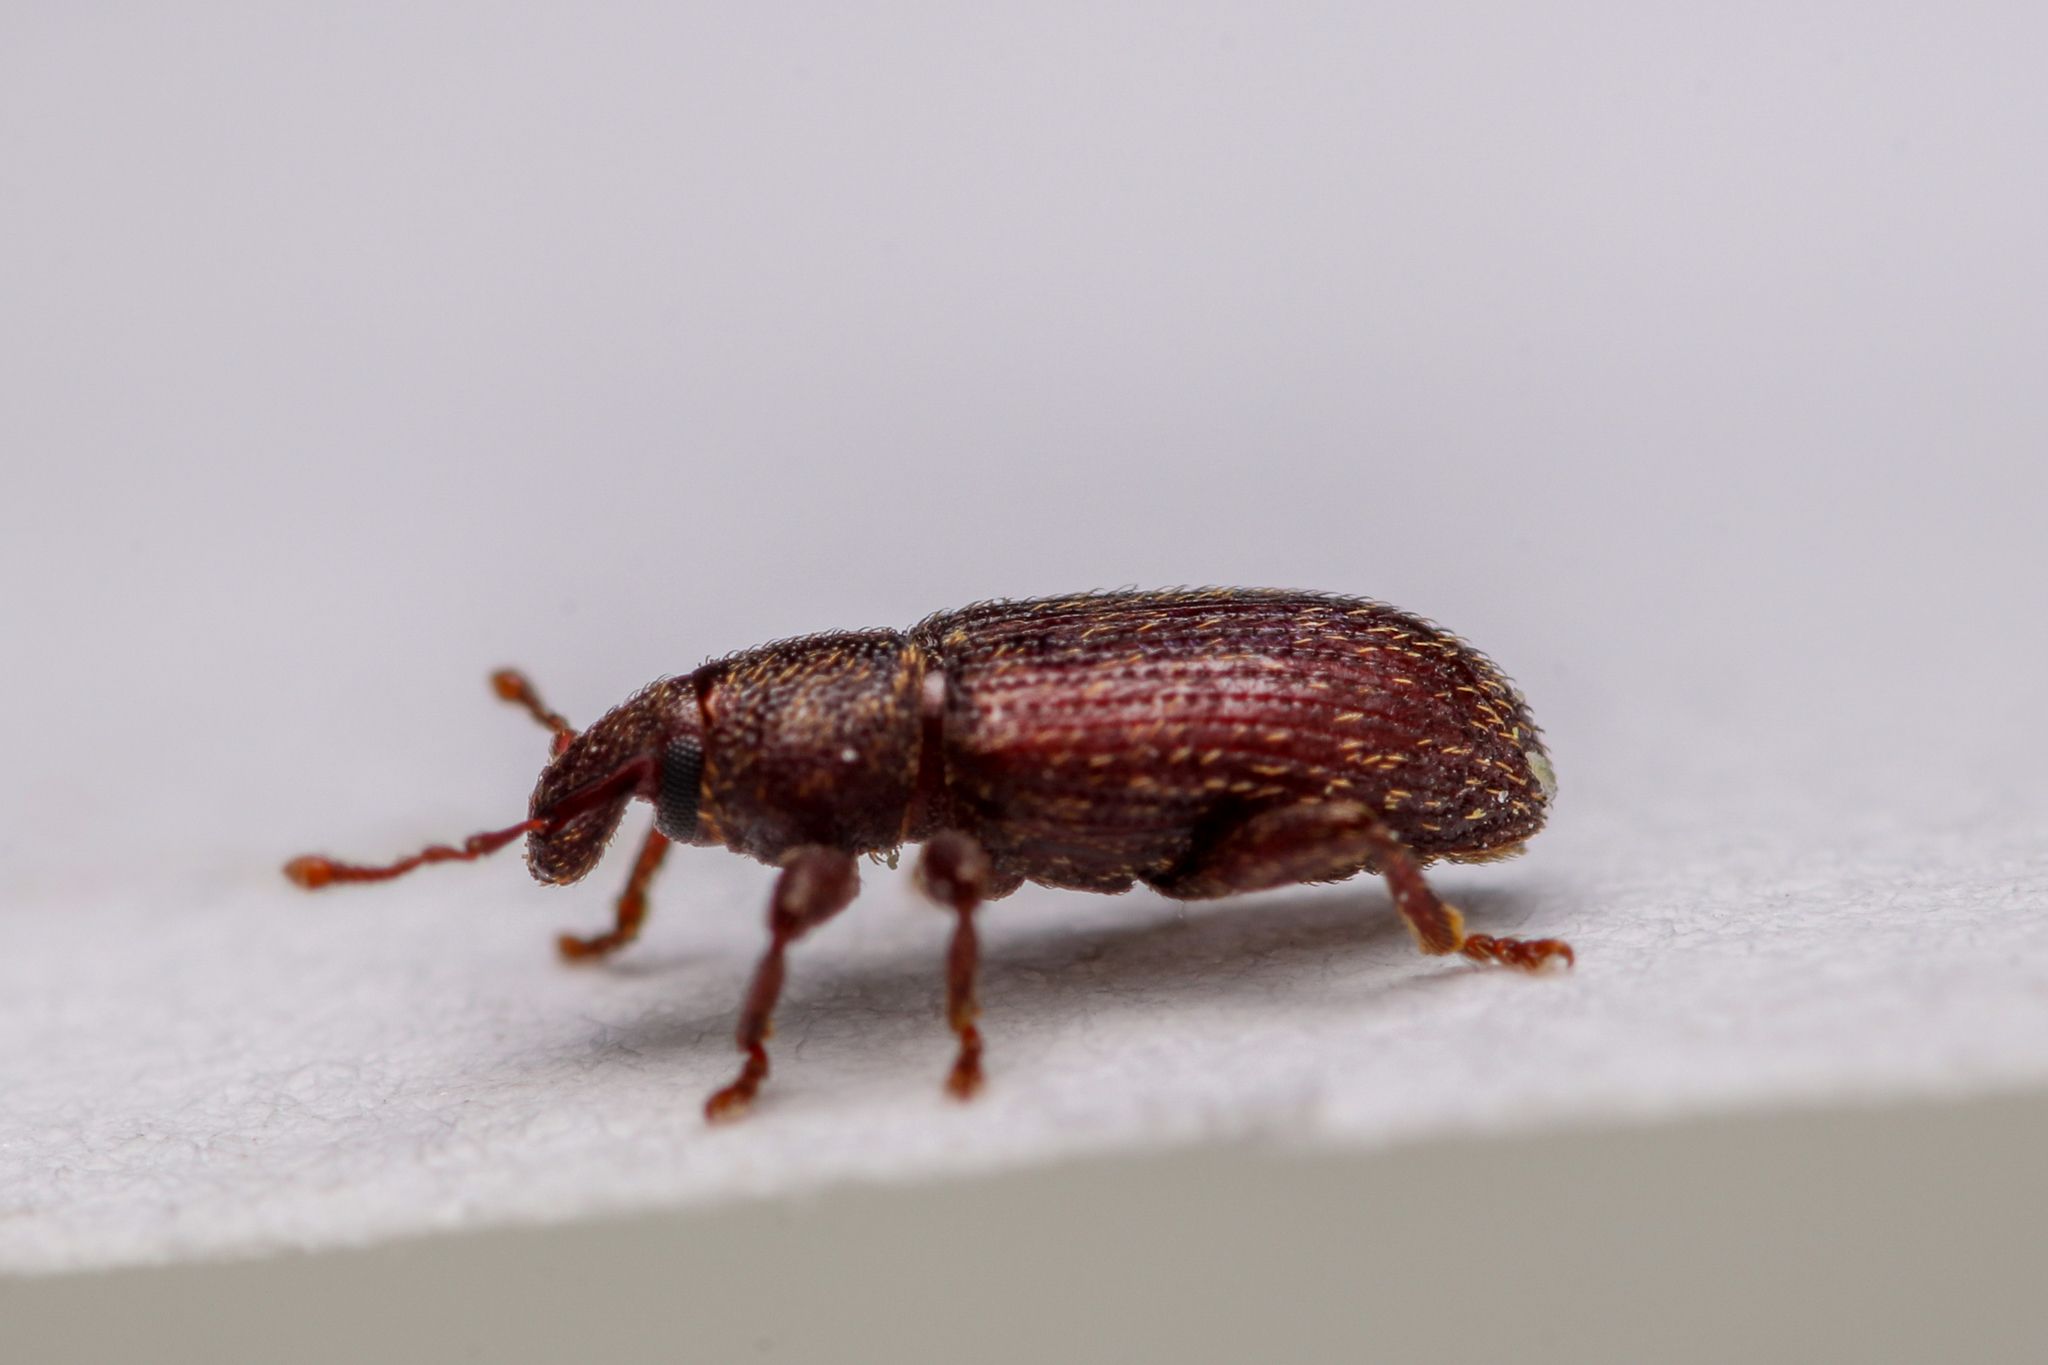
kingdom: Animalia
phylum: Arthropoda
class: Insecta
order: Coleoptera
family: Curculionidae
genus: Hormops
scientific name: Hormops abducens
